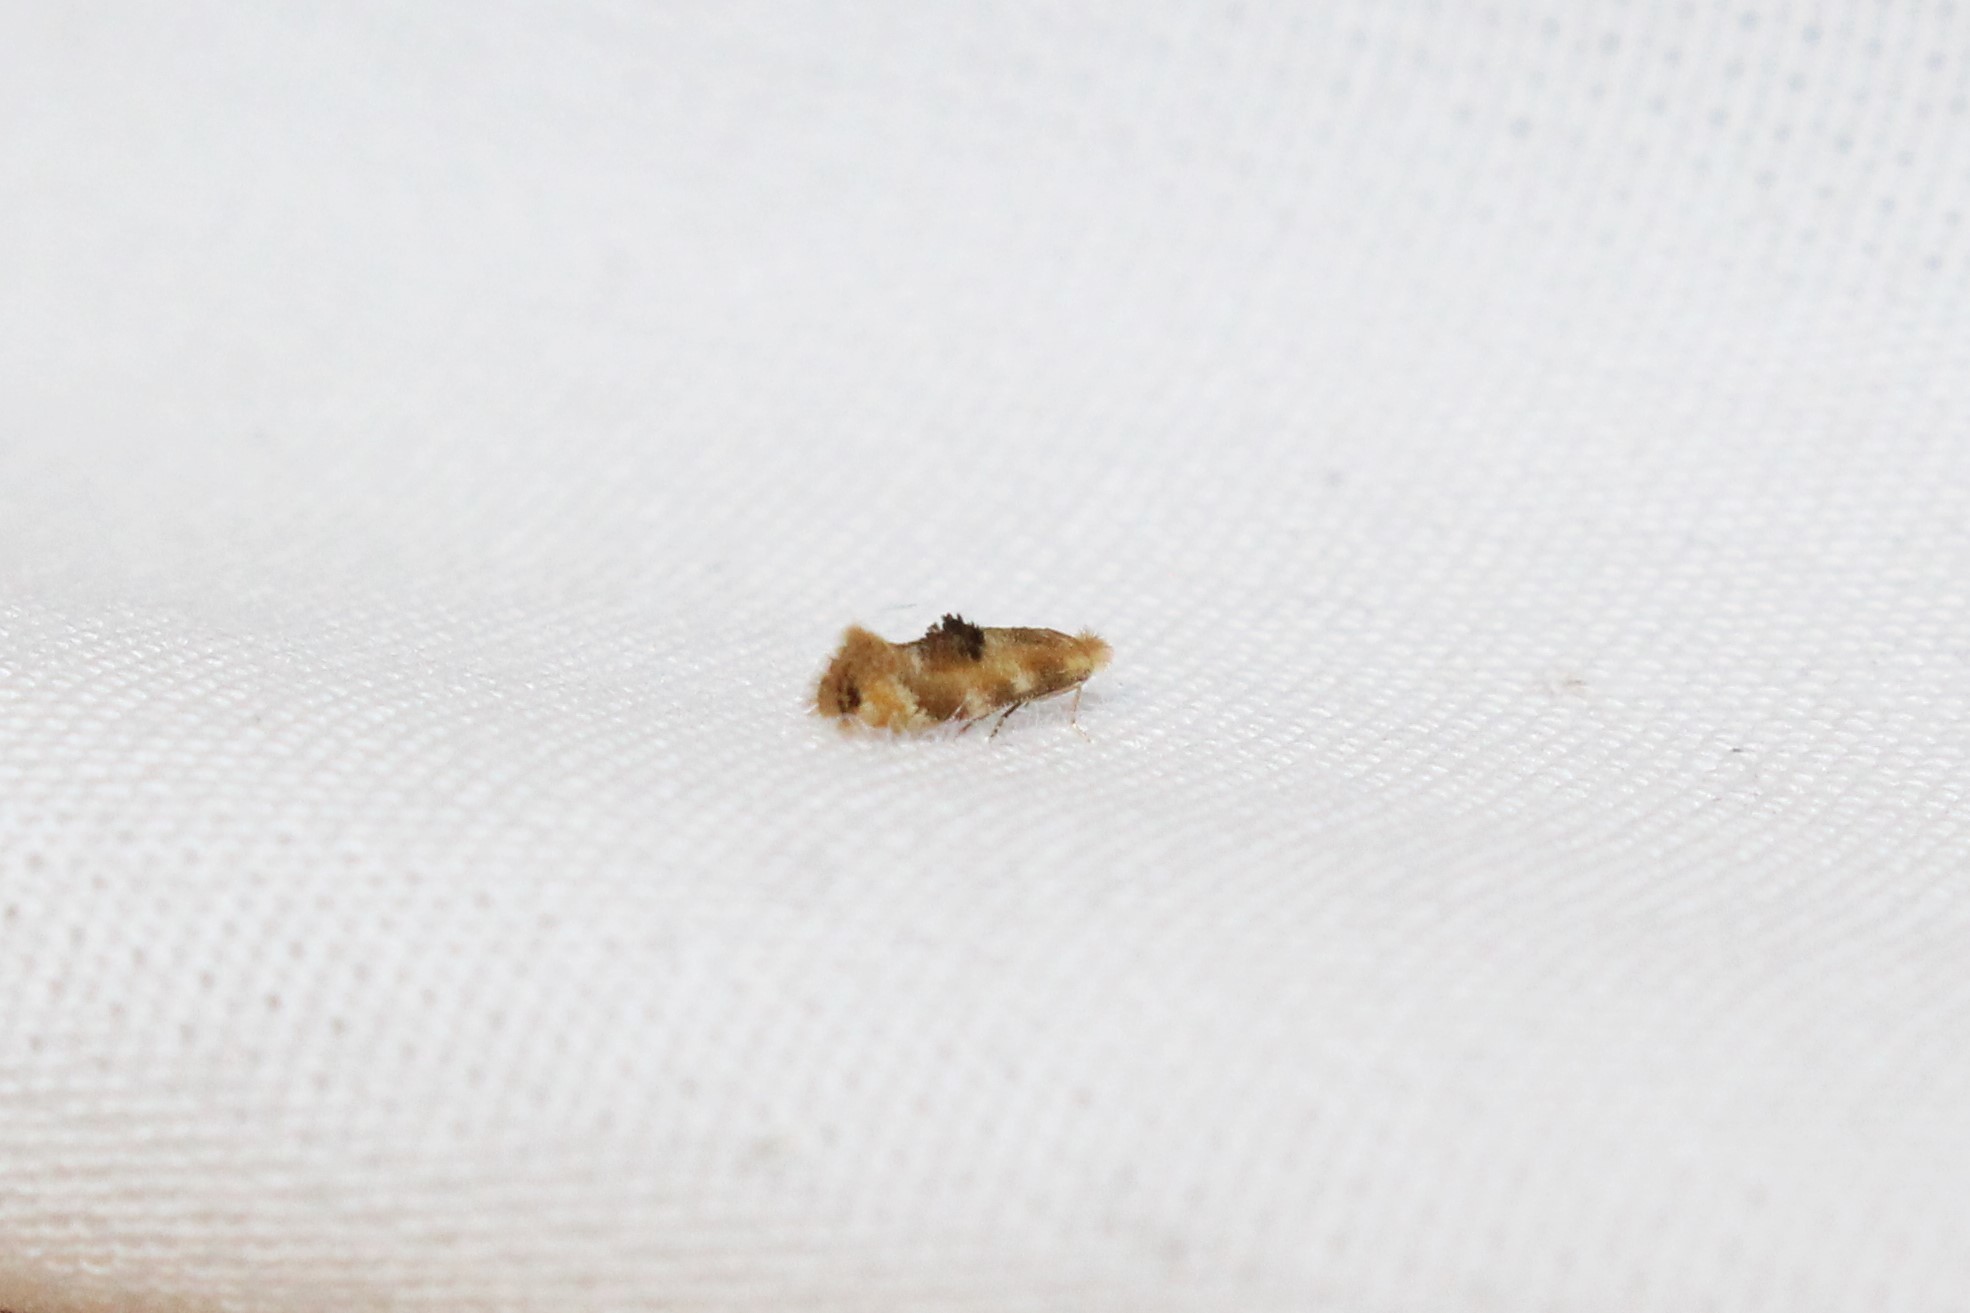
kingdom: Animalia
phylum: Arthropoda
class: Insecta
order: Lepidoptera
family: Bucculatricidae
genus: Bucculatrix
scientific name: Bucculatrix coronatella
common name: Crowned bucculatrix moth
